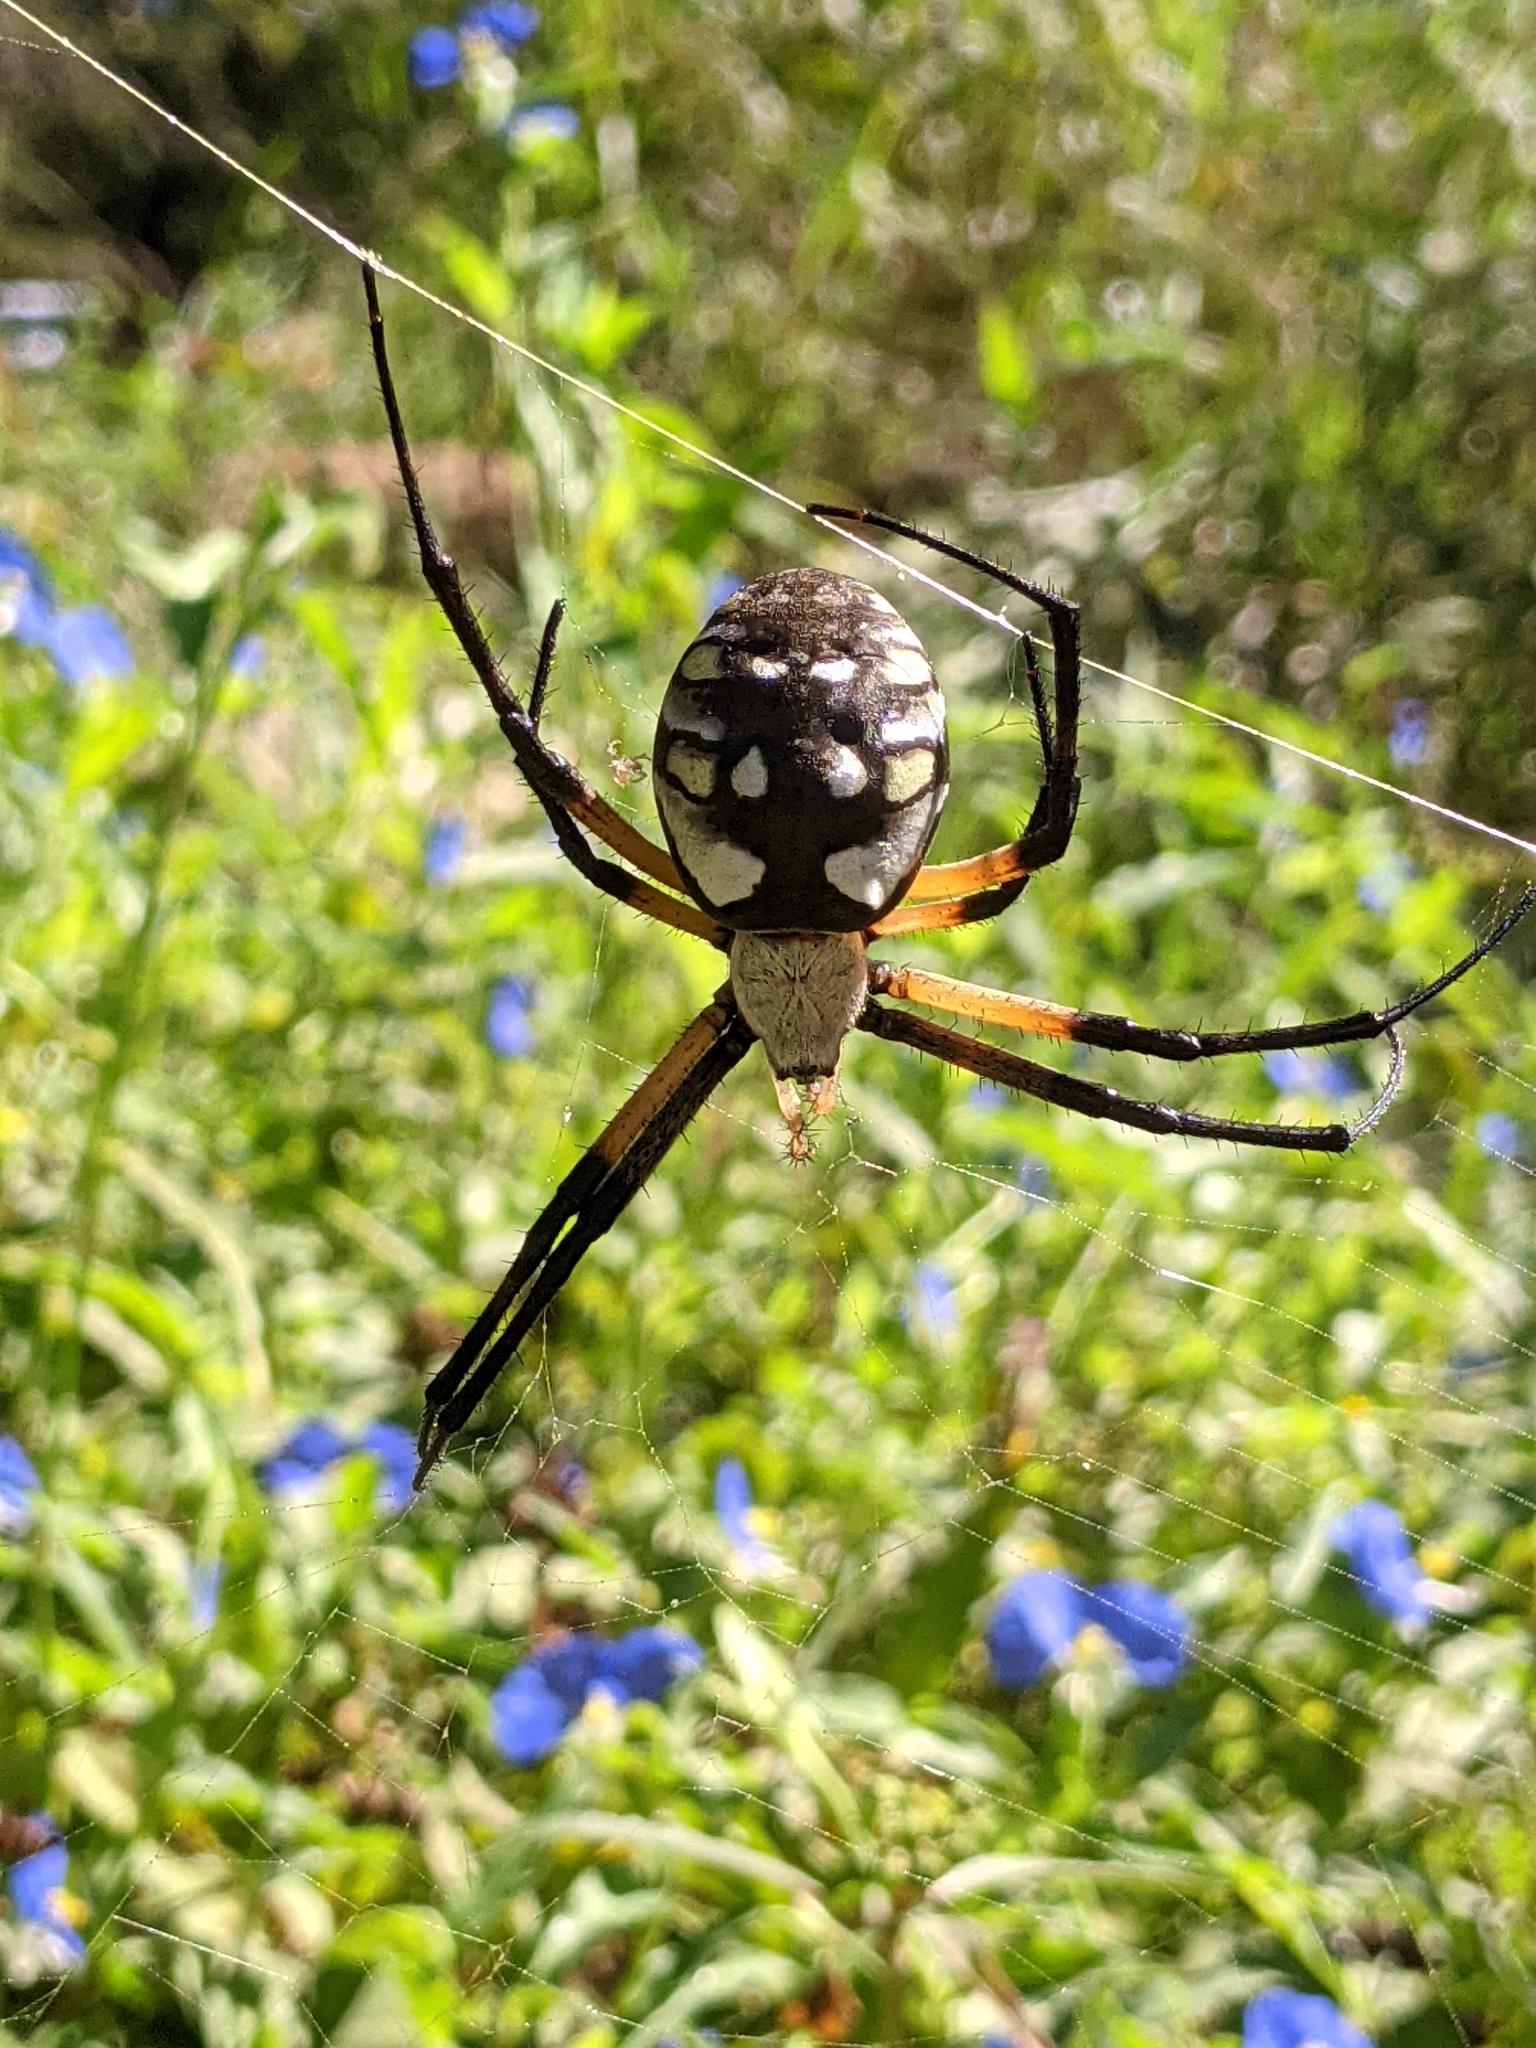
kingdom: Animalia
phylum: Arthropoda
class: Arachnida
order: Araneae
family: Araneidae
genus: Argiope
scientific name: Argiope aurantia
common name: Orb weavers
